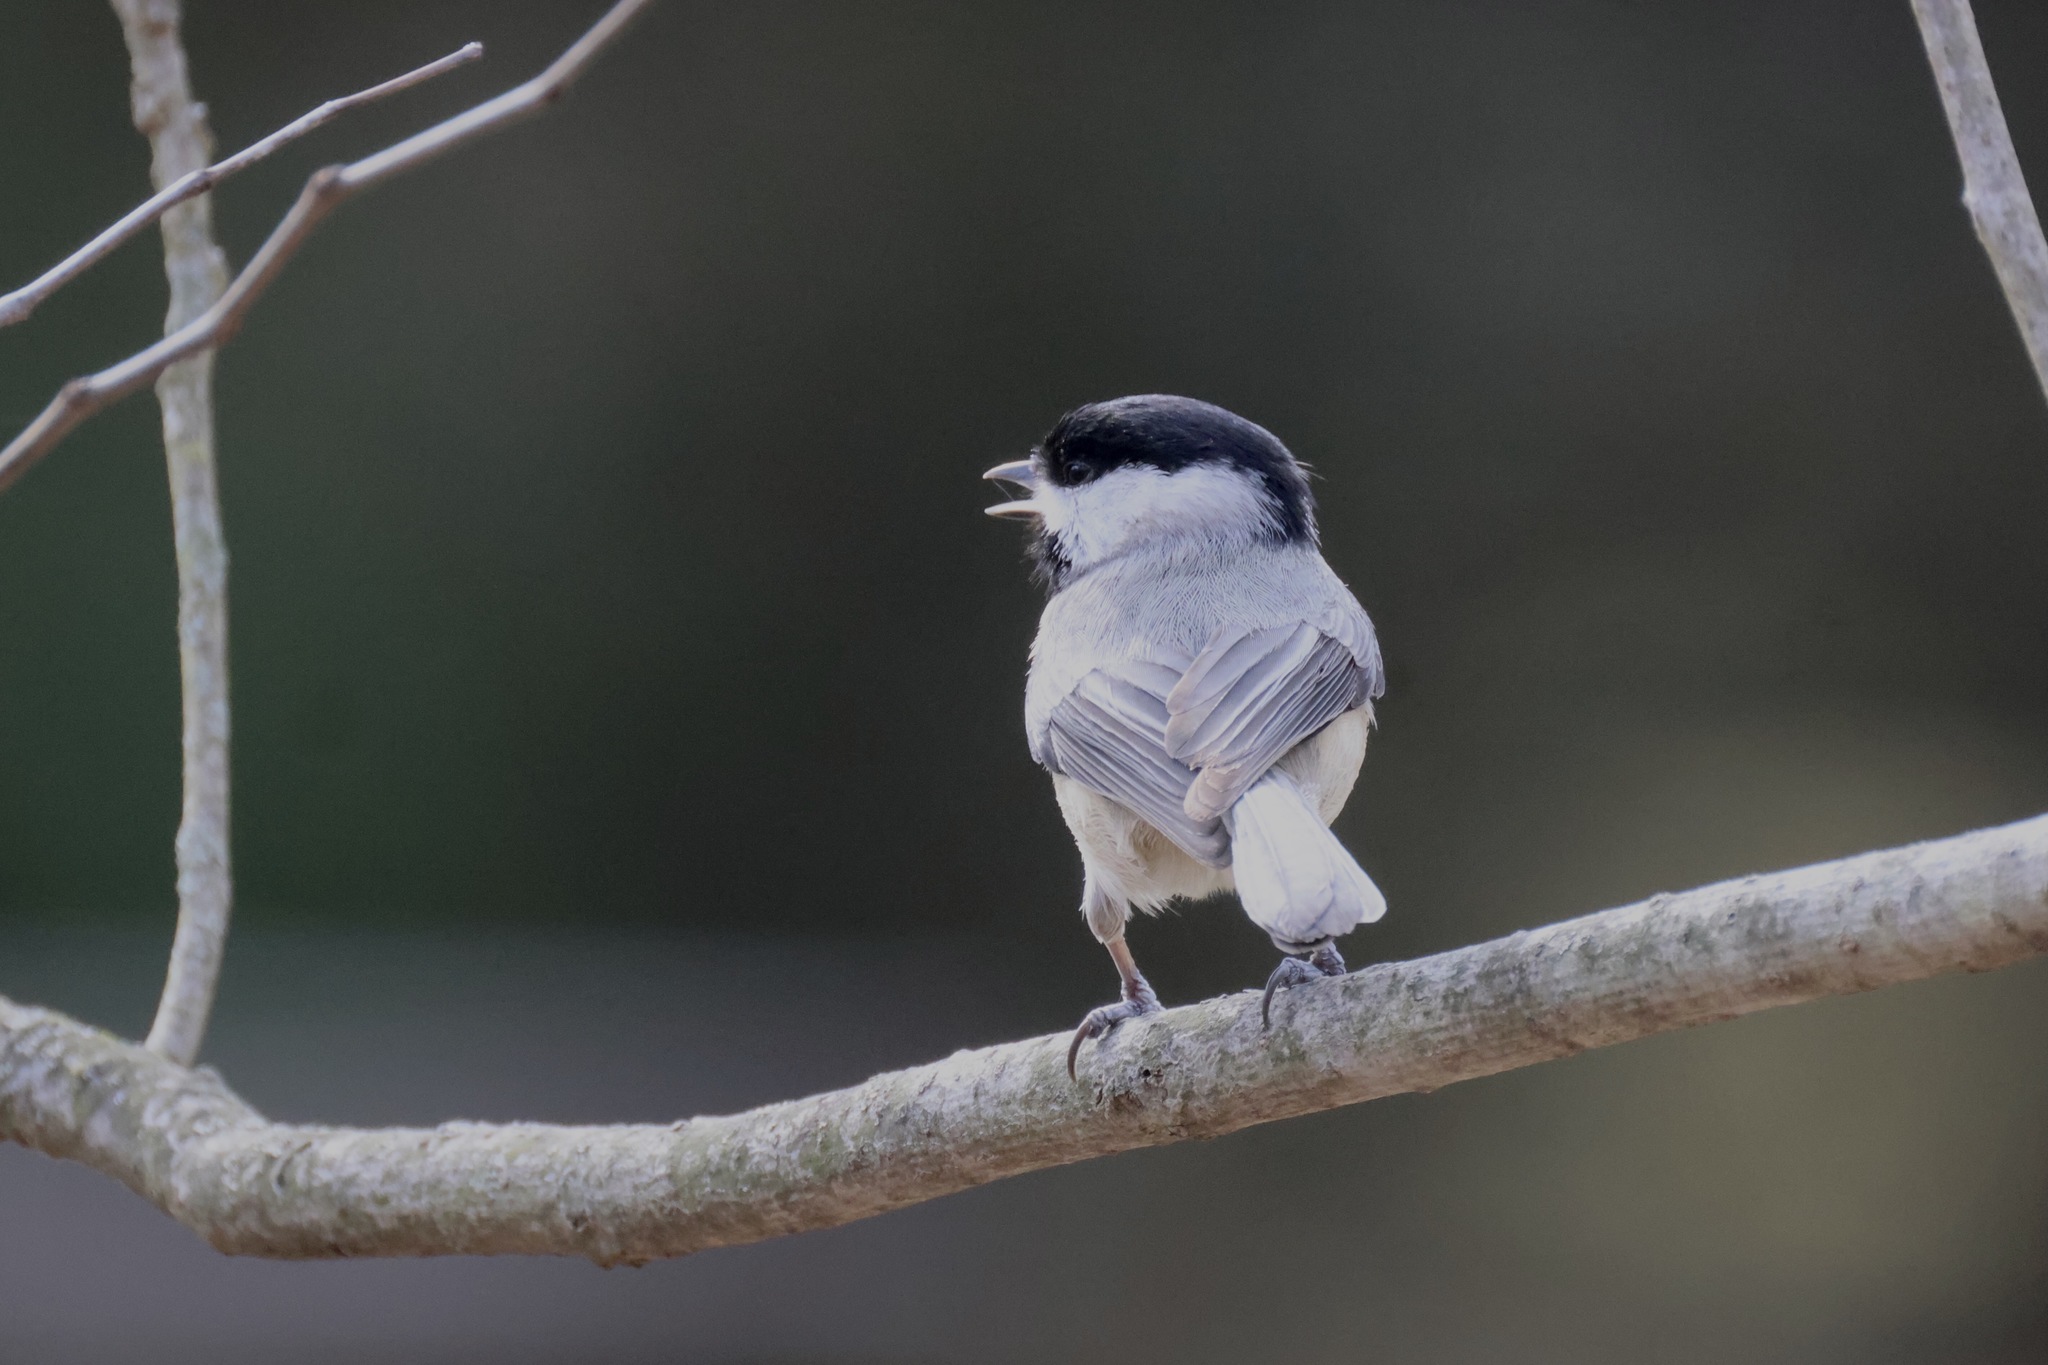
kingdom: Animalia
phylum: Chordata
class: Aves
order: Passeriformes
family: Paridae
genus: Poecile
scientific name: Poecile carolinensis
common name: Carolina chickadee
